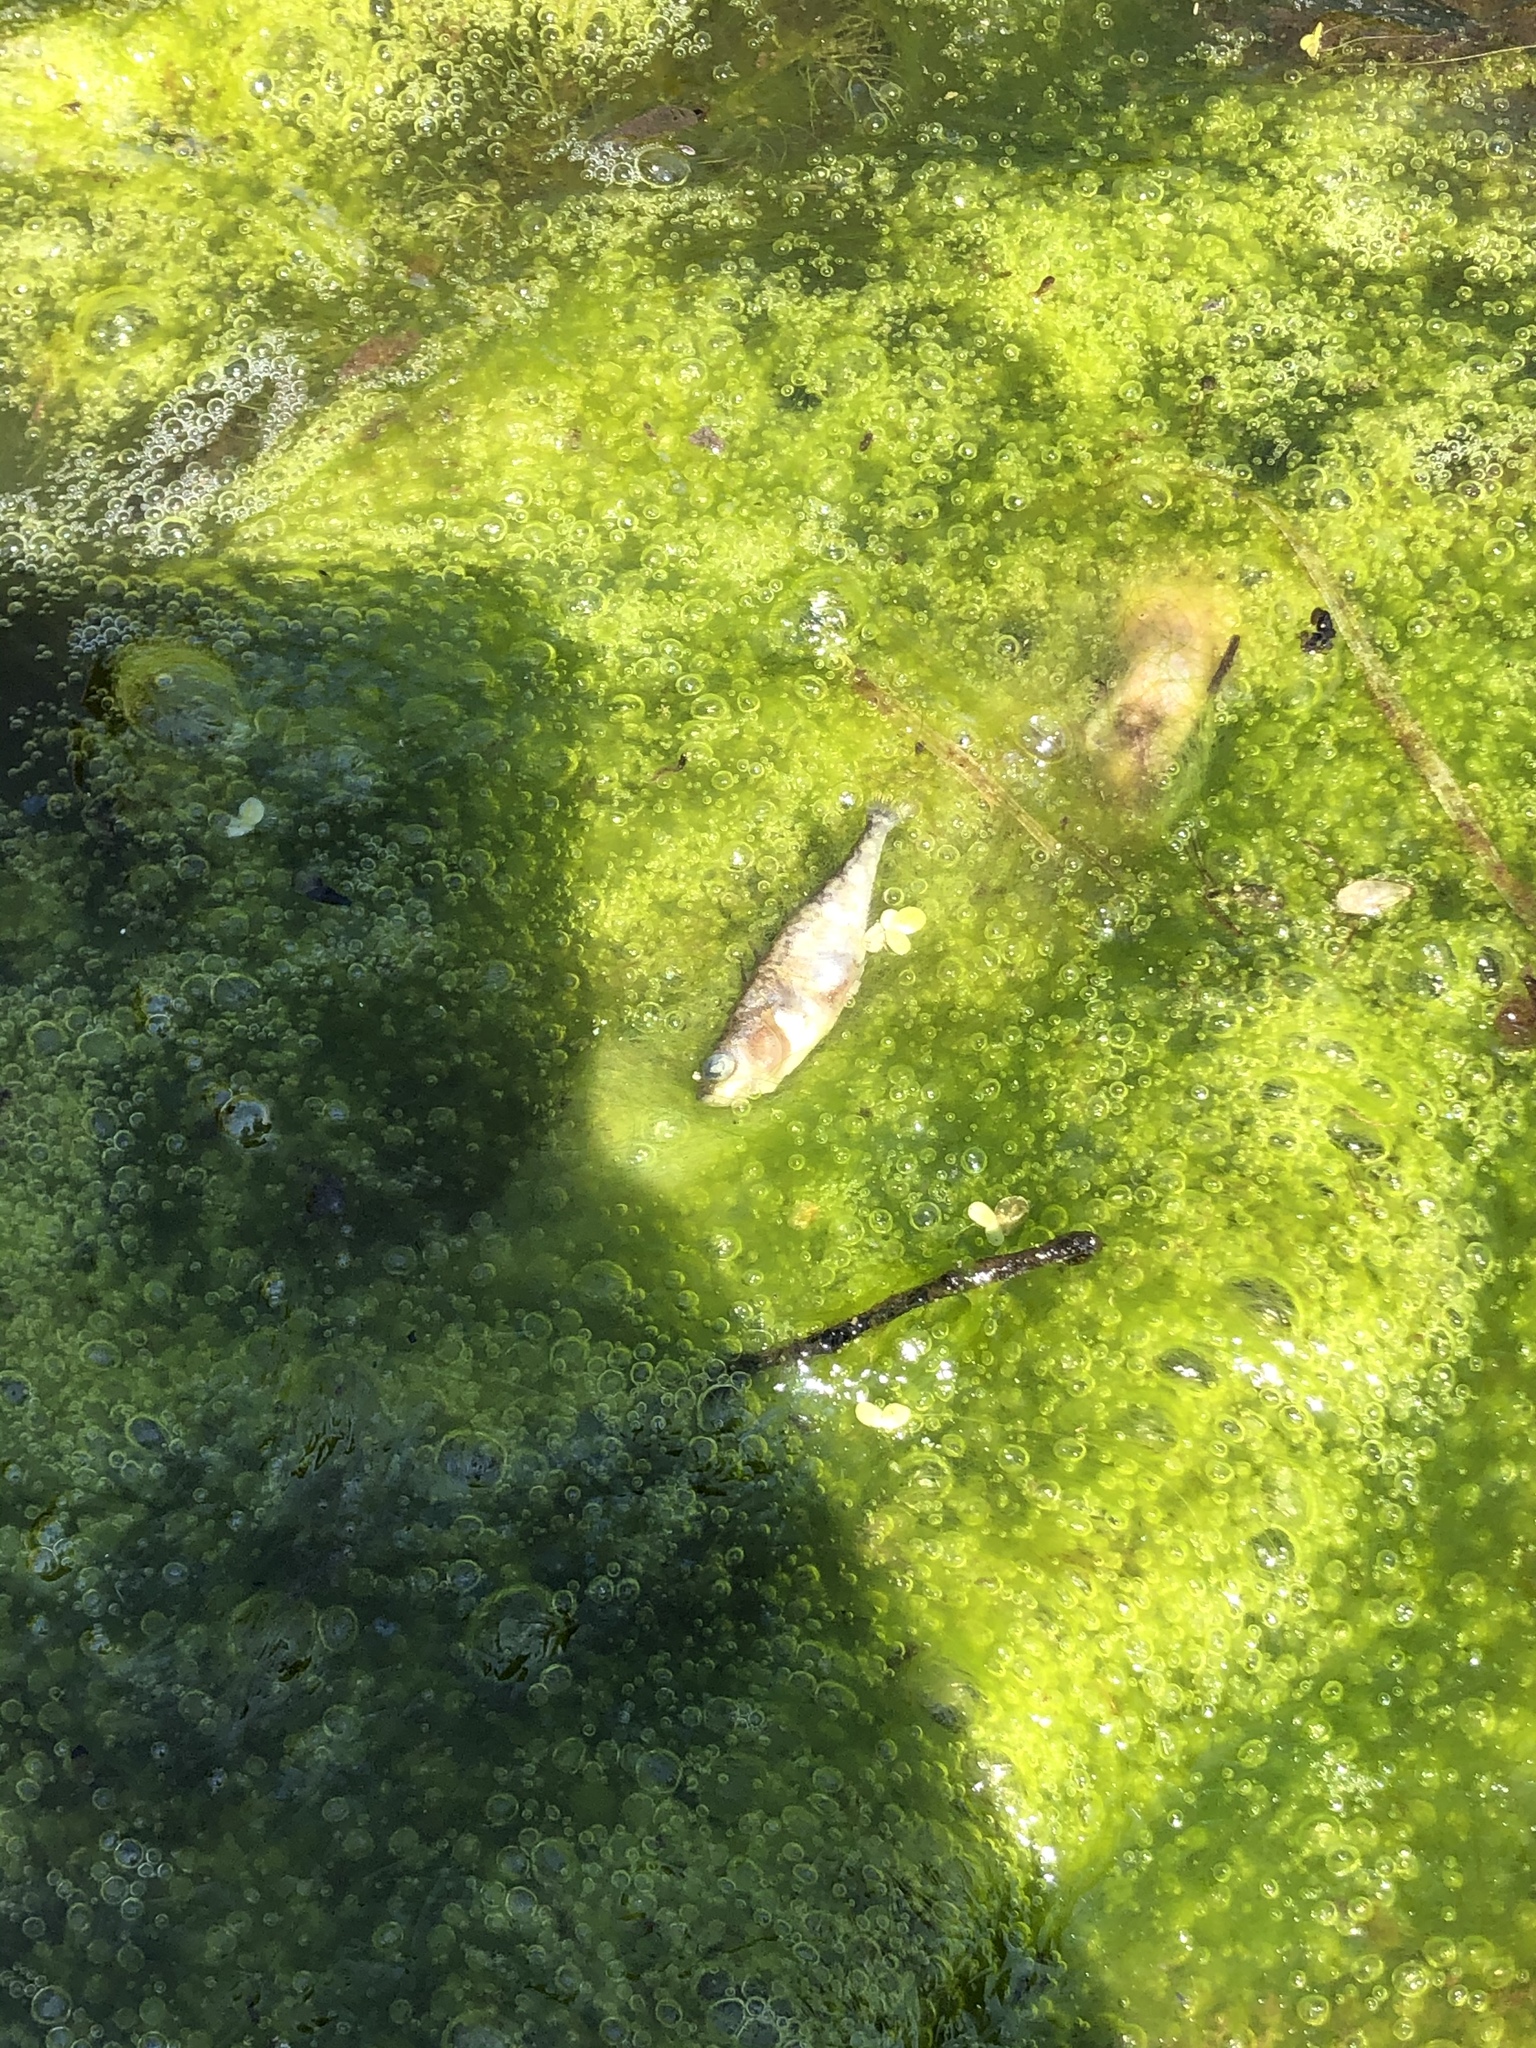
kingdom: Animalia
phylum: Chordata
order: Gasterosteiformes
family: Gasterosteidae
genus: Gasterosteus
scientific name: Gasterosteus aculeatus
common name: Three-spined stickleback
